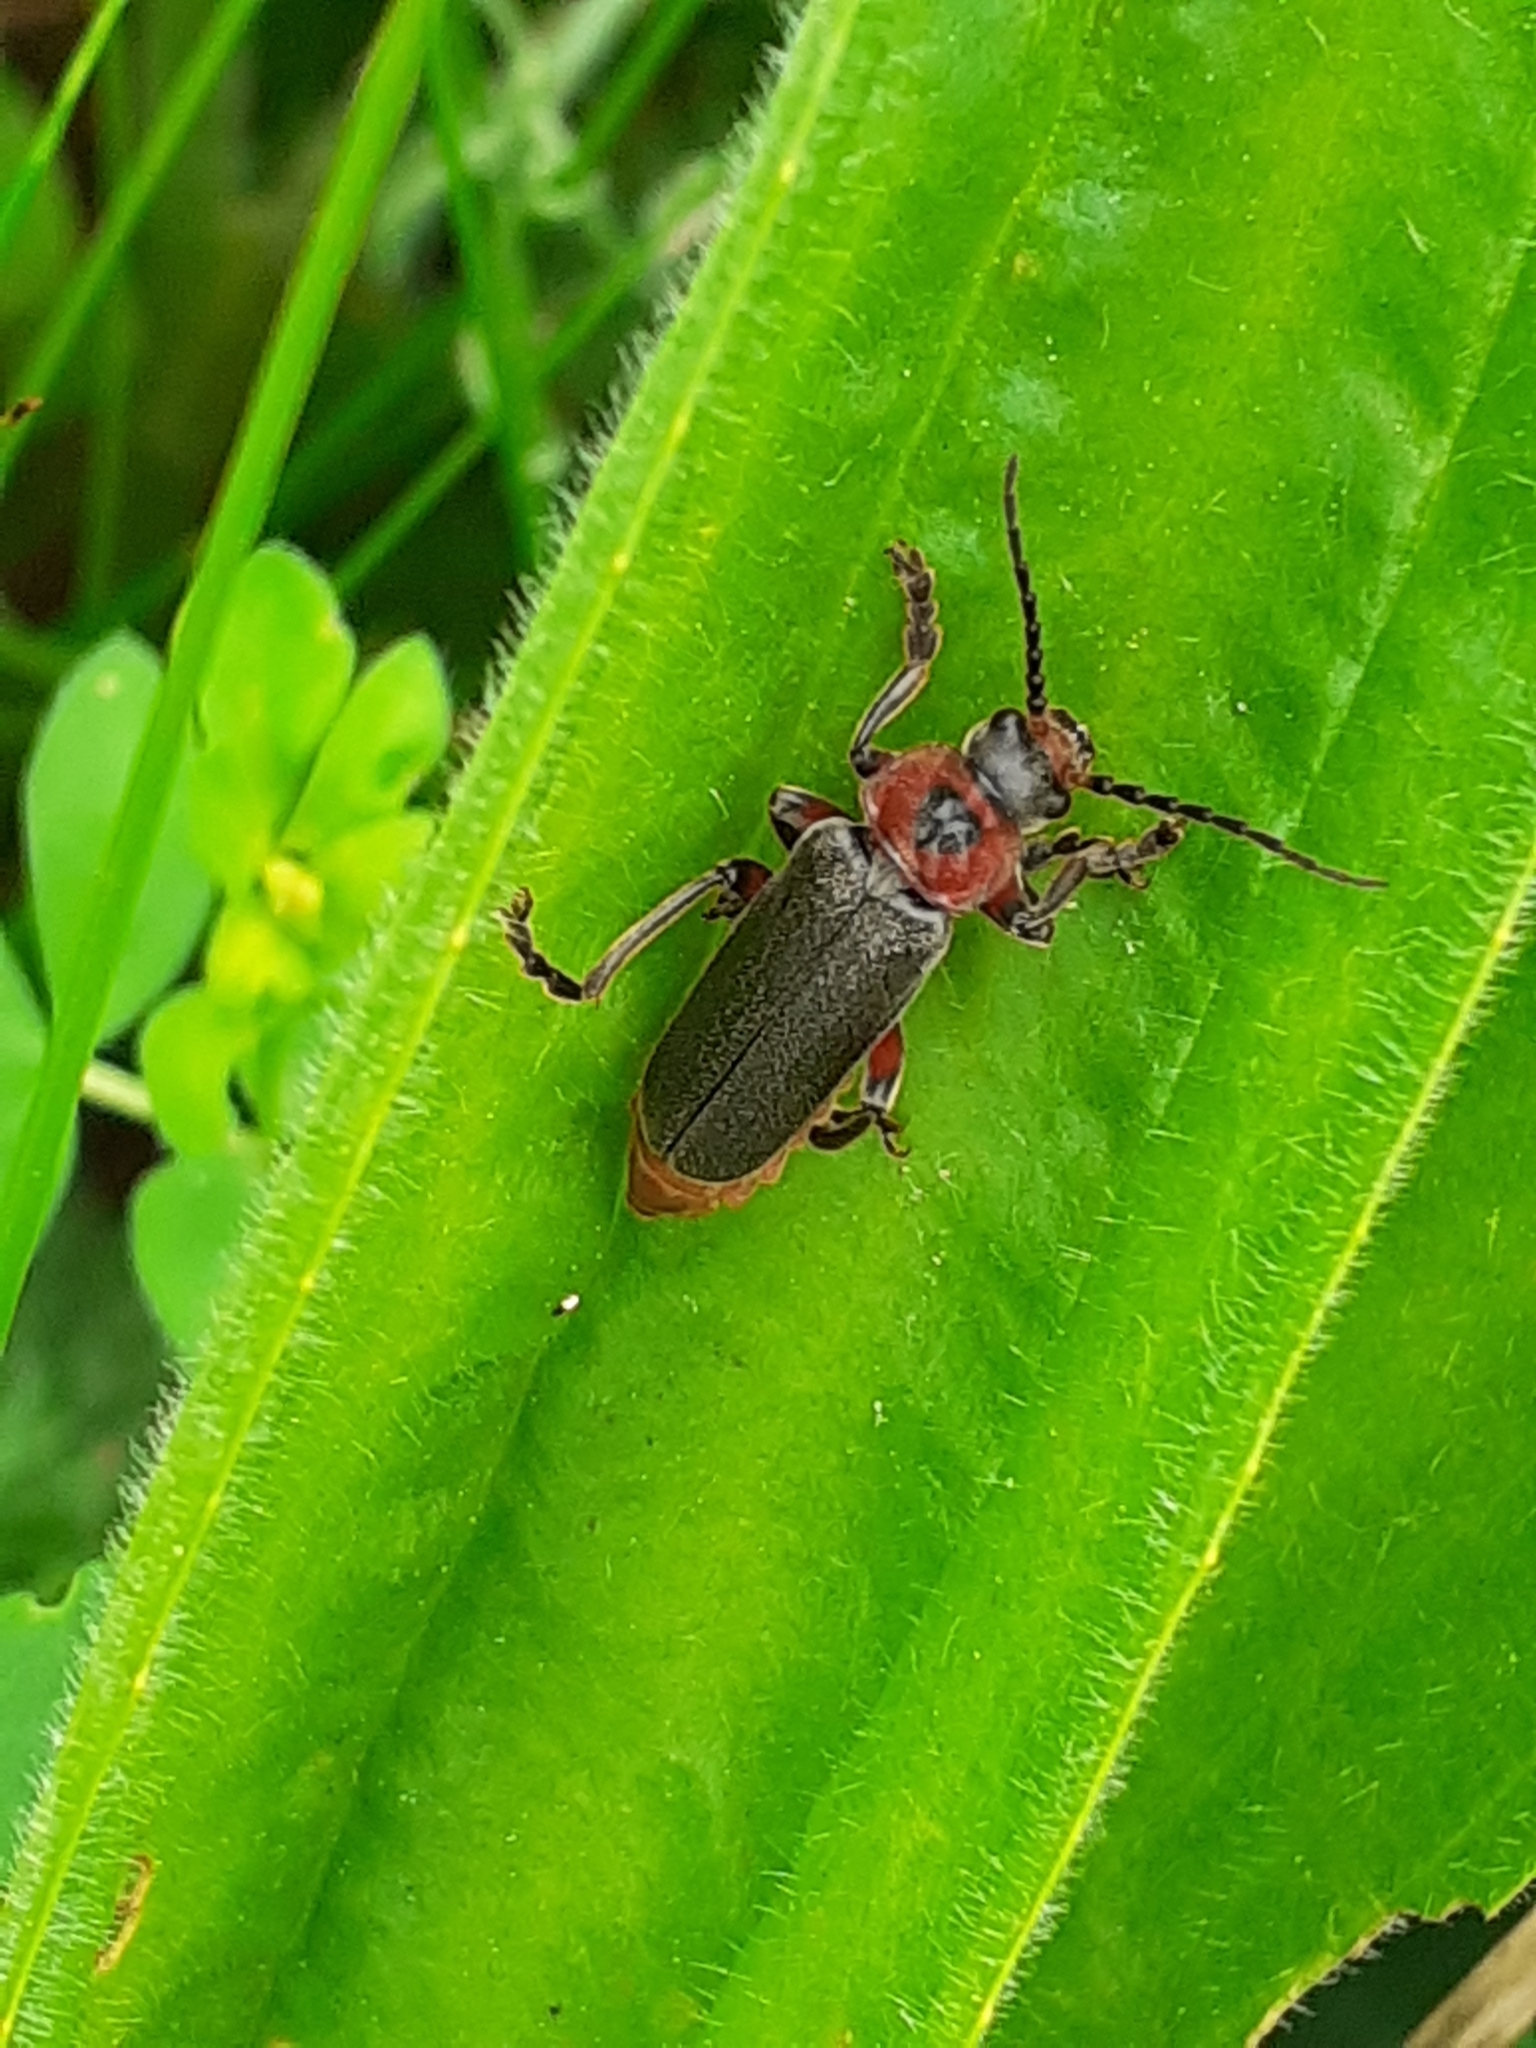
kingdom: Animalia
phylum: Arthropoda
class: Insecta
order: Coleoptera
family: Cantharidae
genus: Cantharis
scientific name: Cantharis rustica
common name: Soldier beetle
